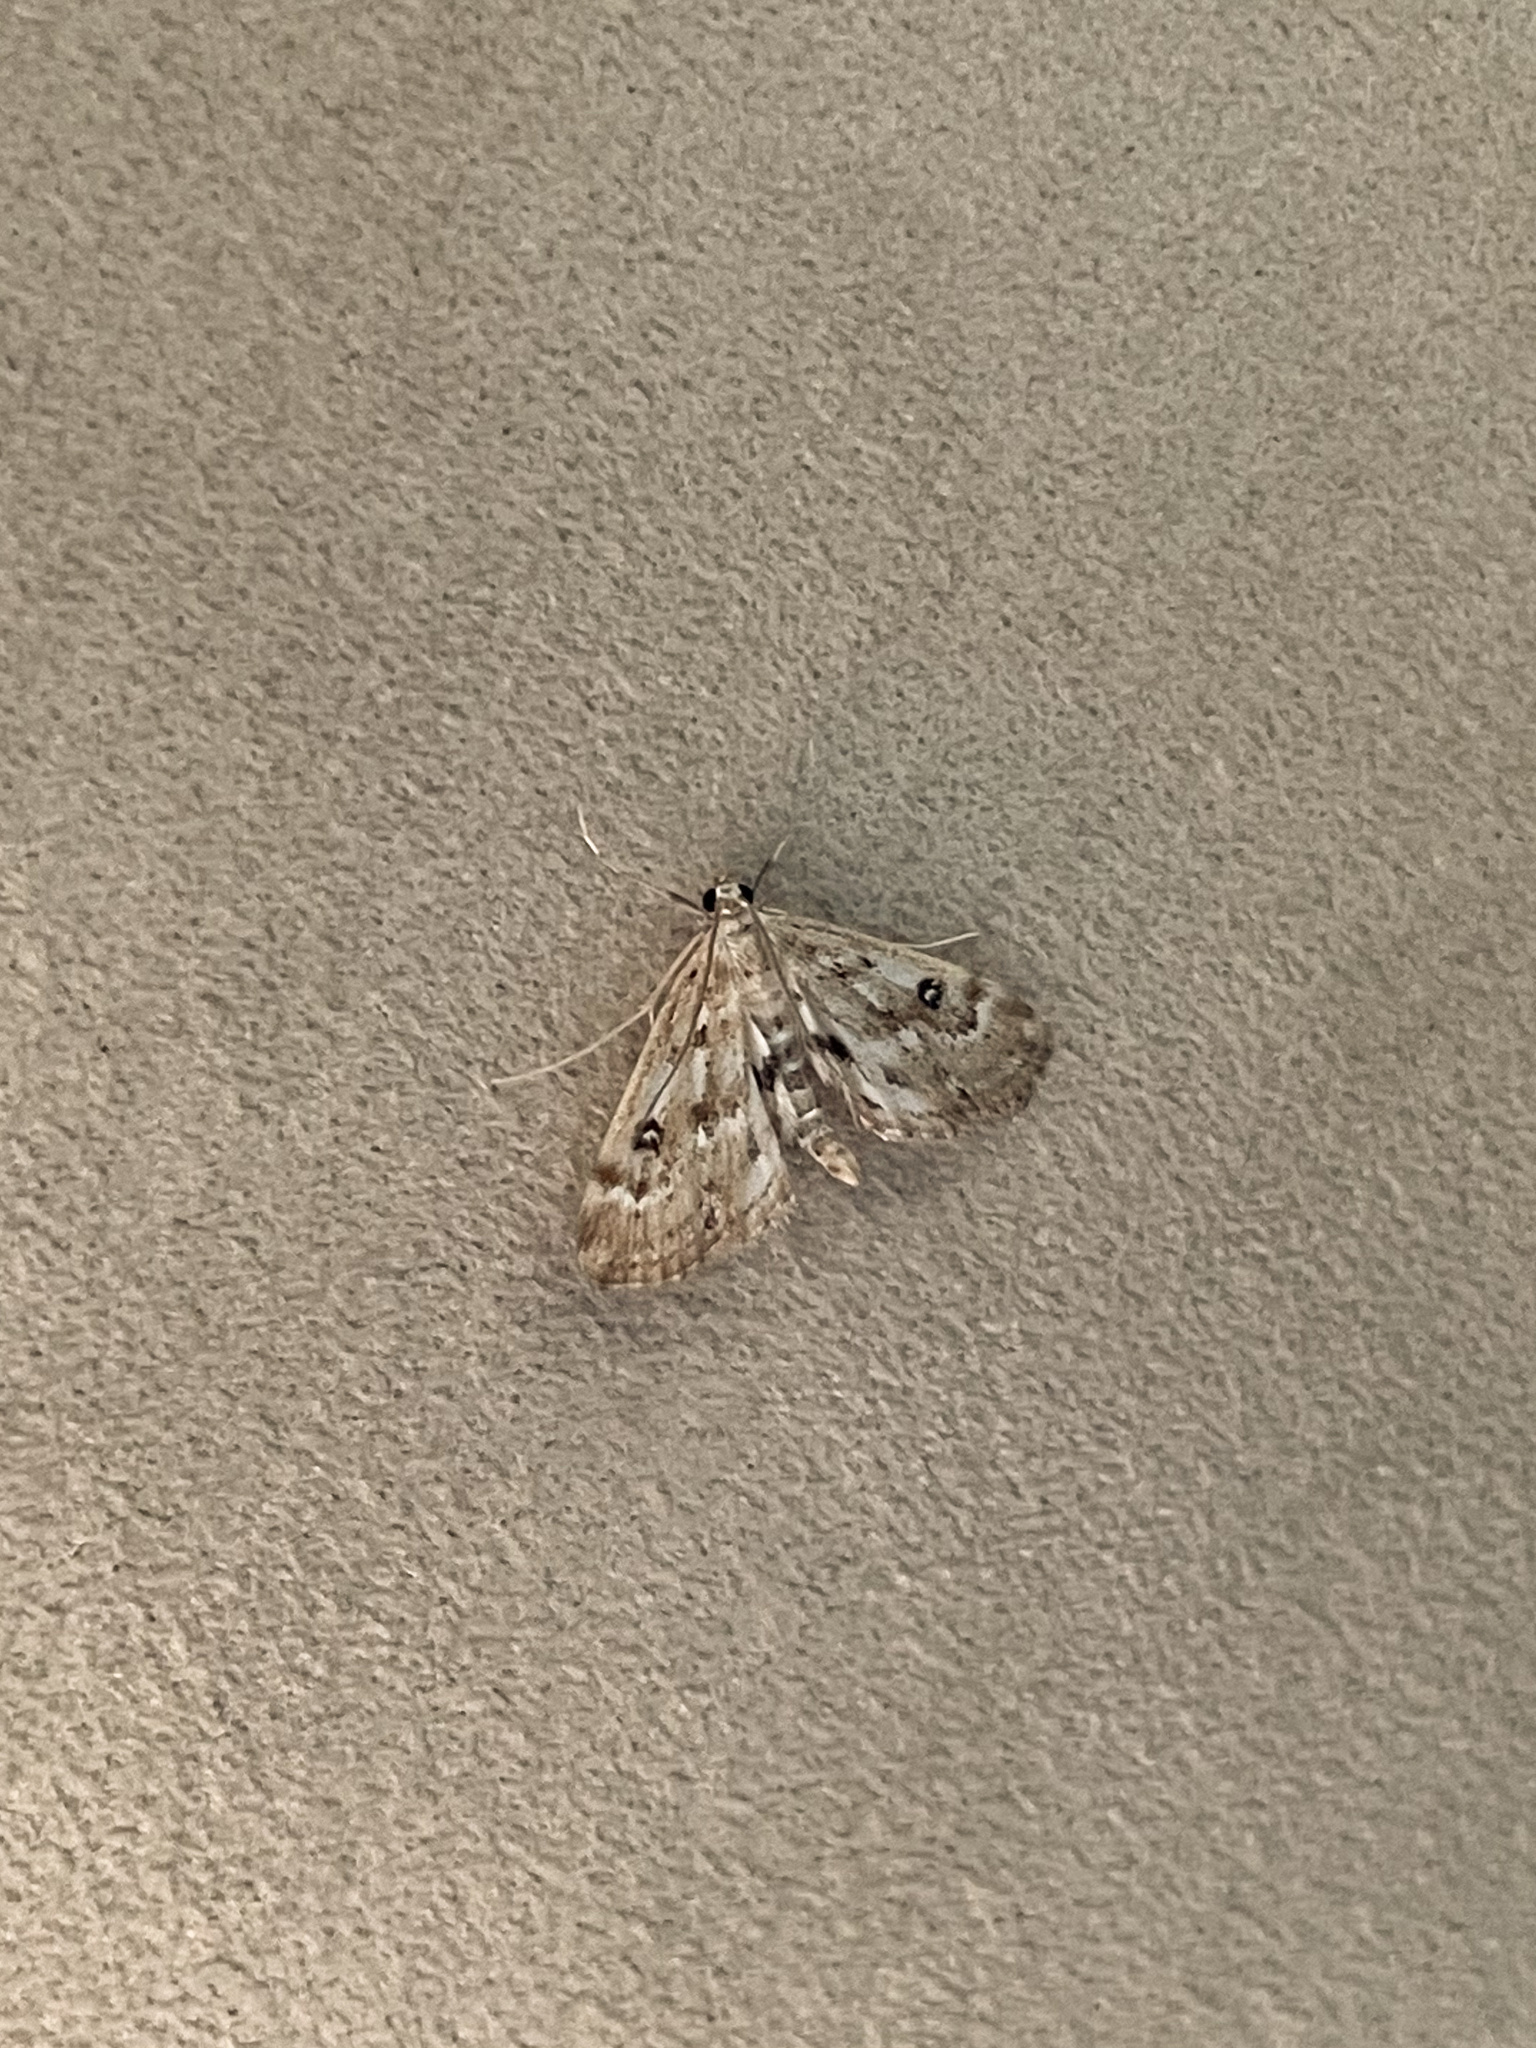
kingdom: Animalia
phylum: Arthropoda
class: Insecta
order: Lepidoptera
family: Crambidae
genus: Parapoynx
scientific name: Parapoynx stratiotata
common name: Ringed china-mark
